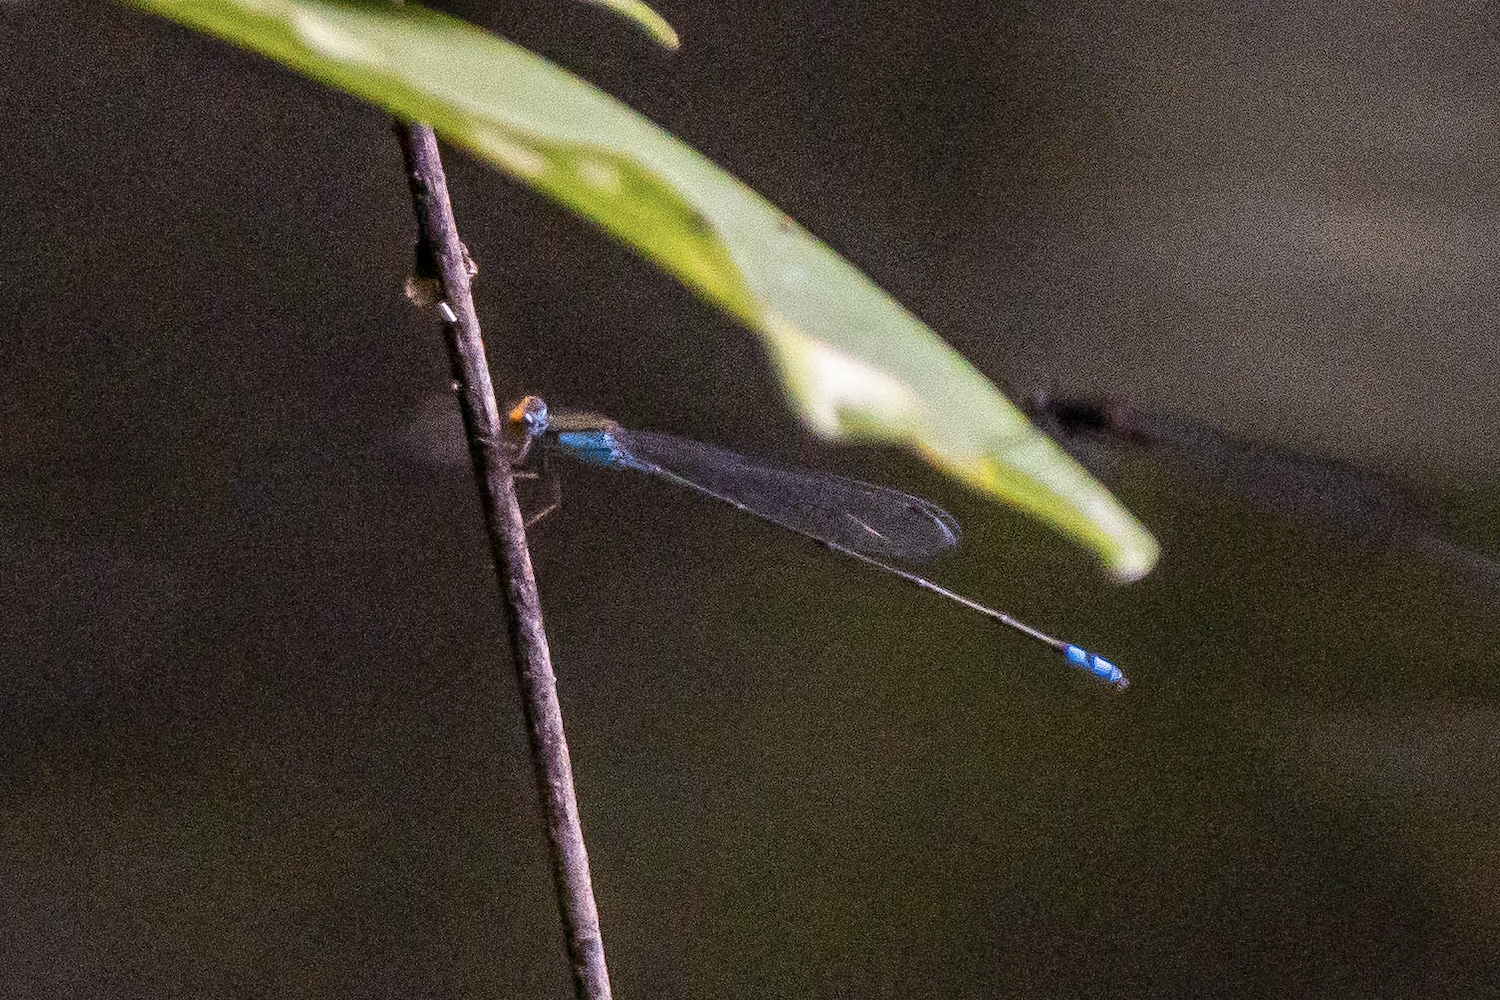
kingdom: Animalia
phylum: Arthropoda
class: Insecta
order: Odonata
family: Coenagrionidae
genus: Pseudagrion
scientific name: Pseudagrion rubriceps
